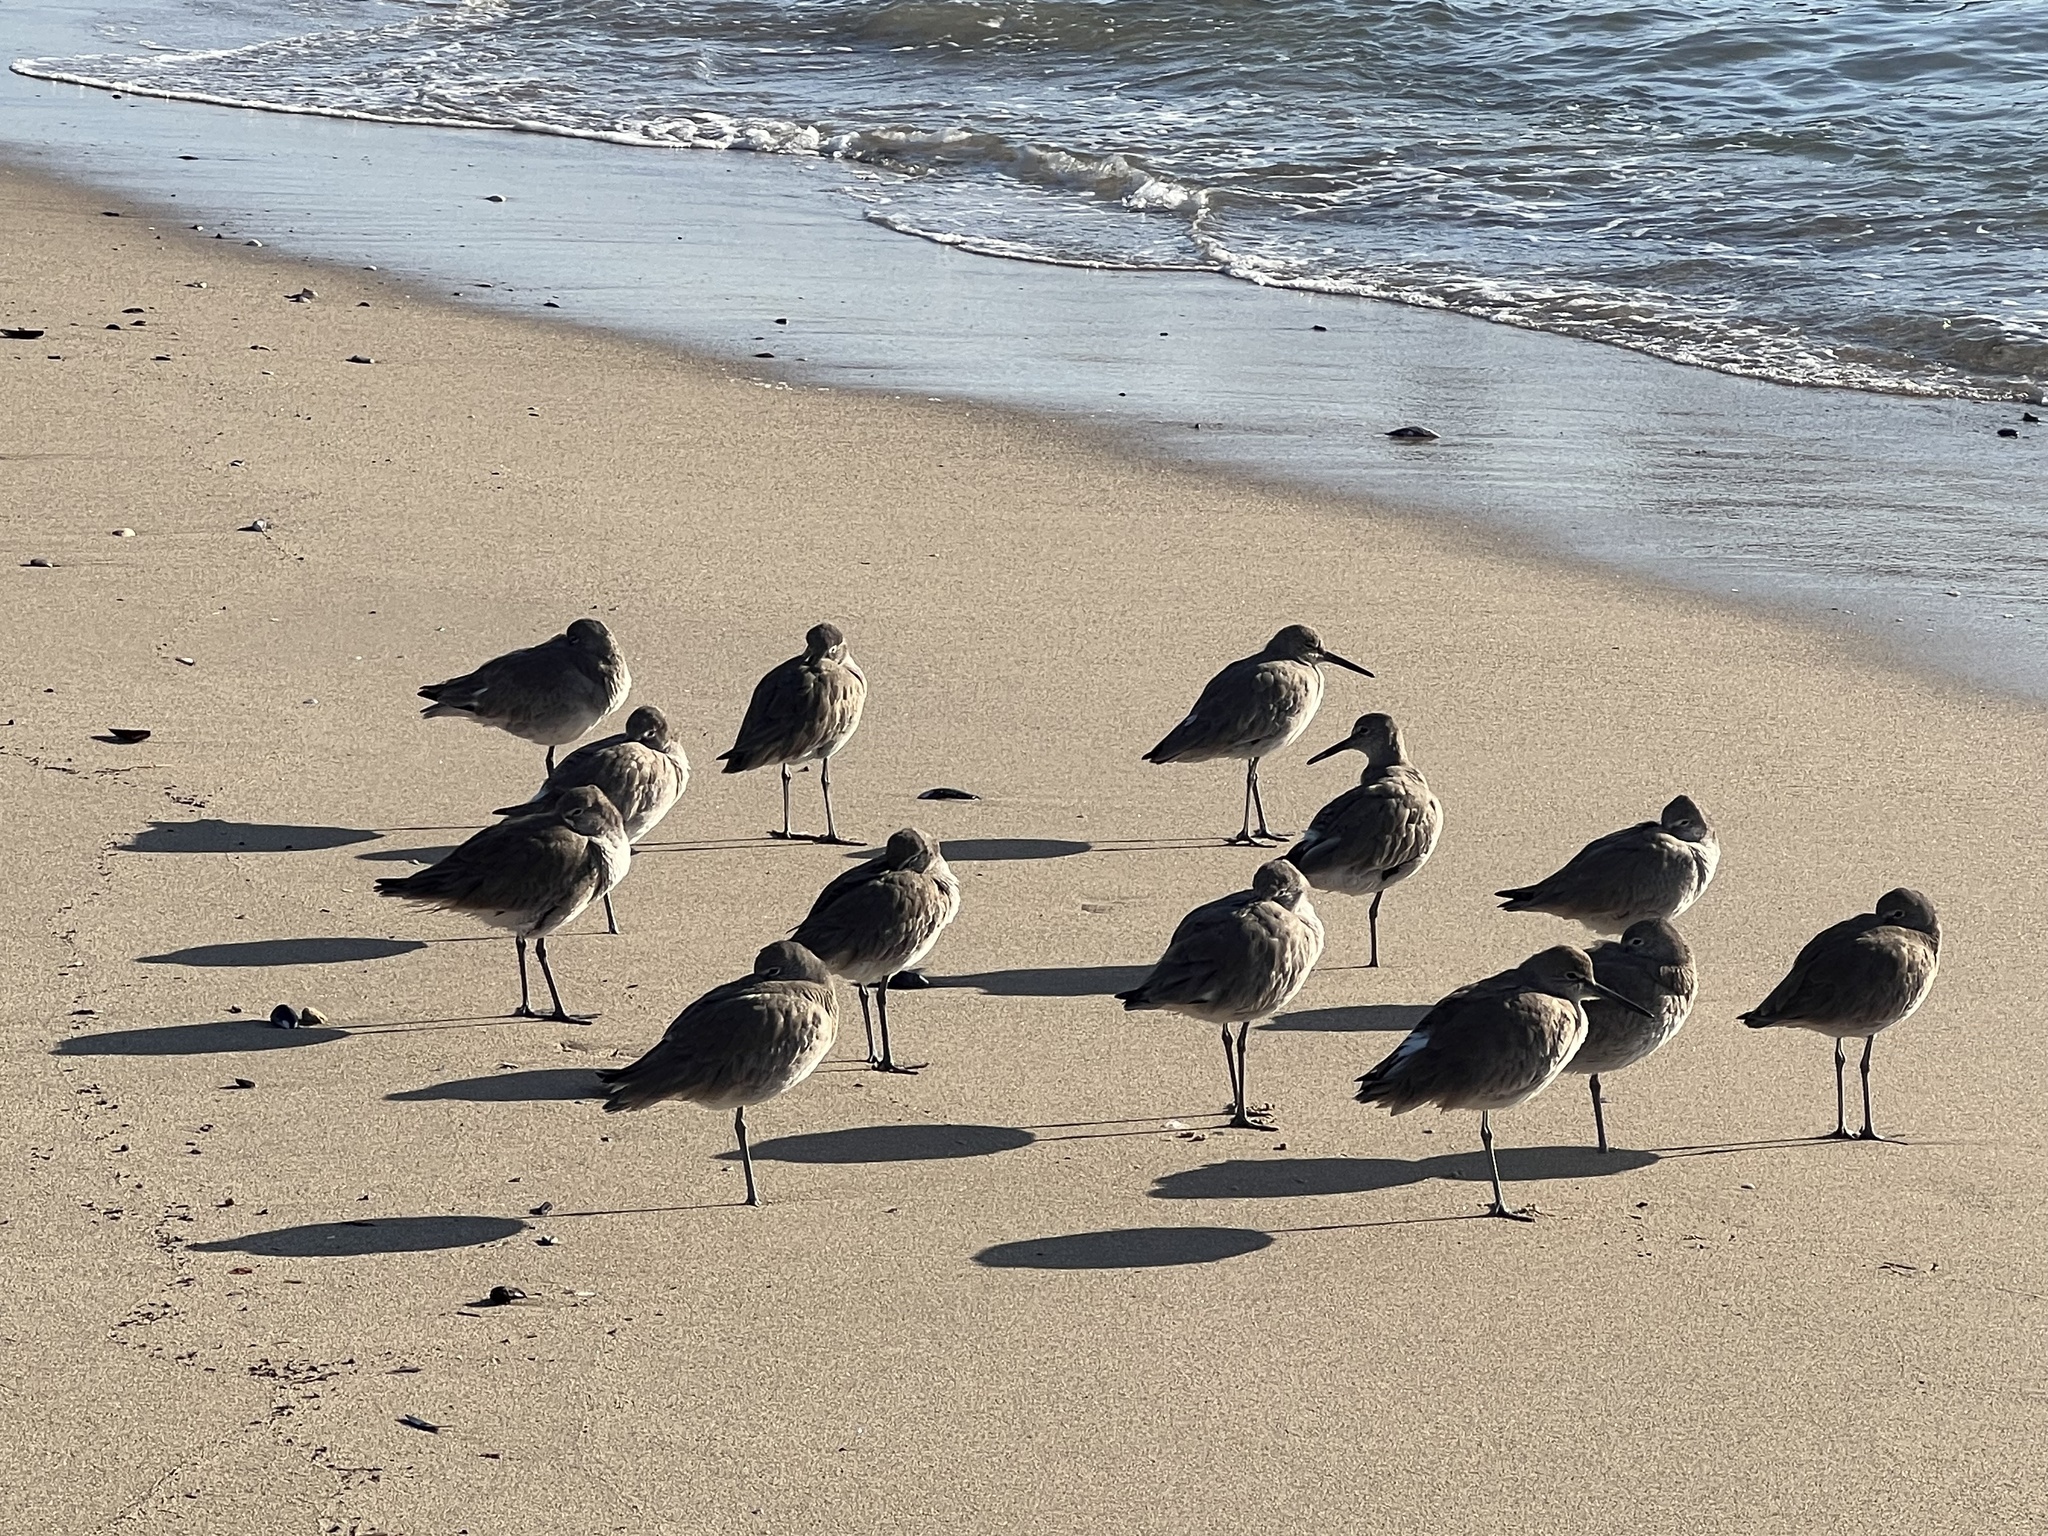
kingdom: Animalia
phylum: Chordata
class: Aves
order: Charadriiformes
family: Scolopacidae
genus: Tringa
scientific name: Tringa semipalmata
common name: Willet
